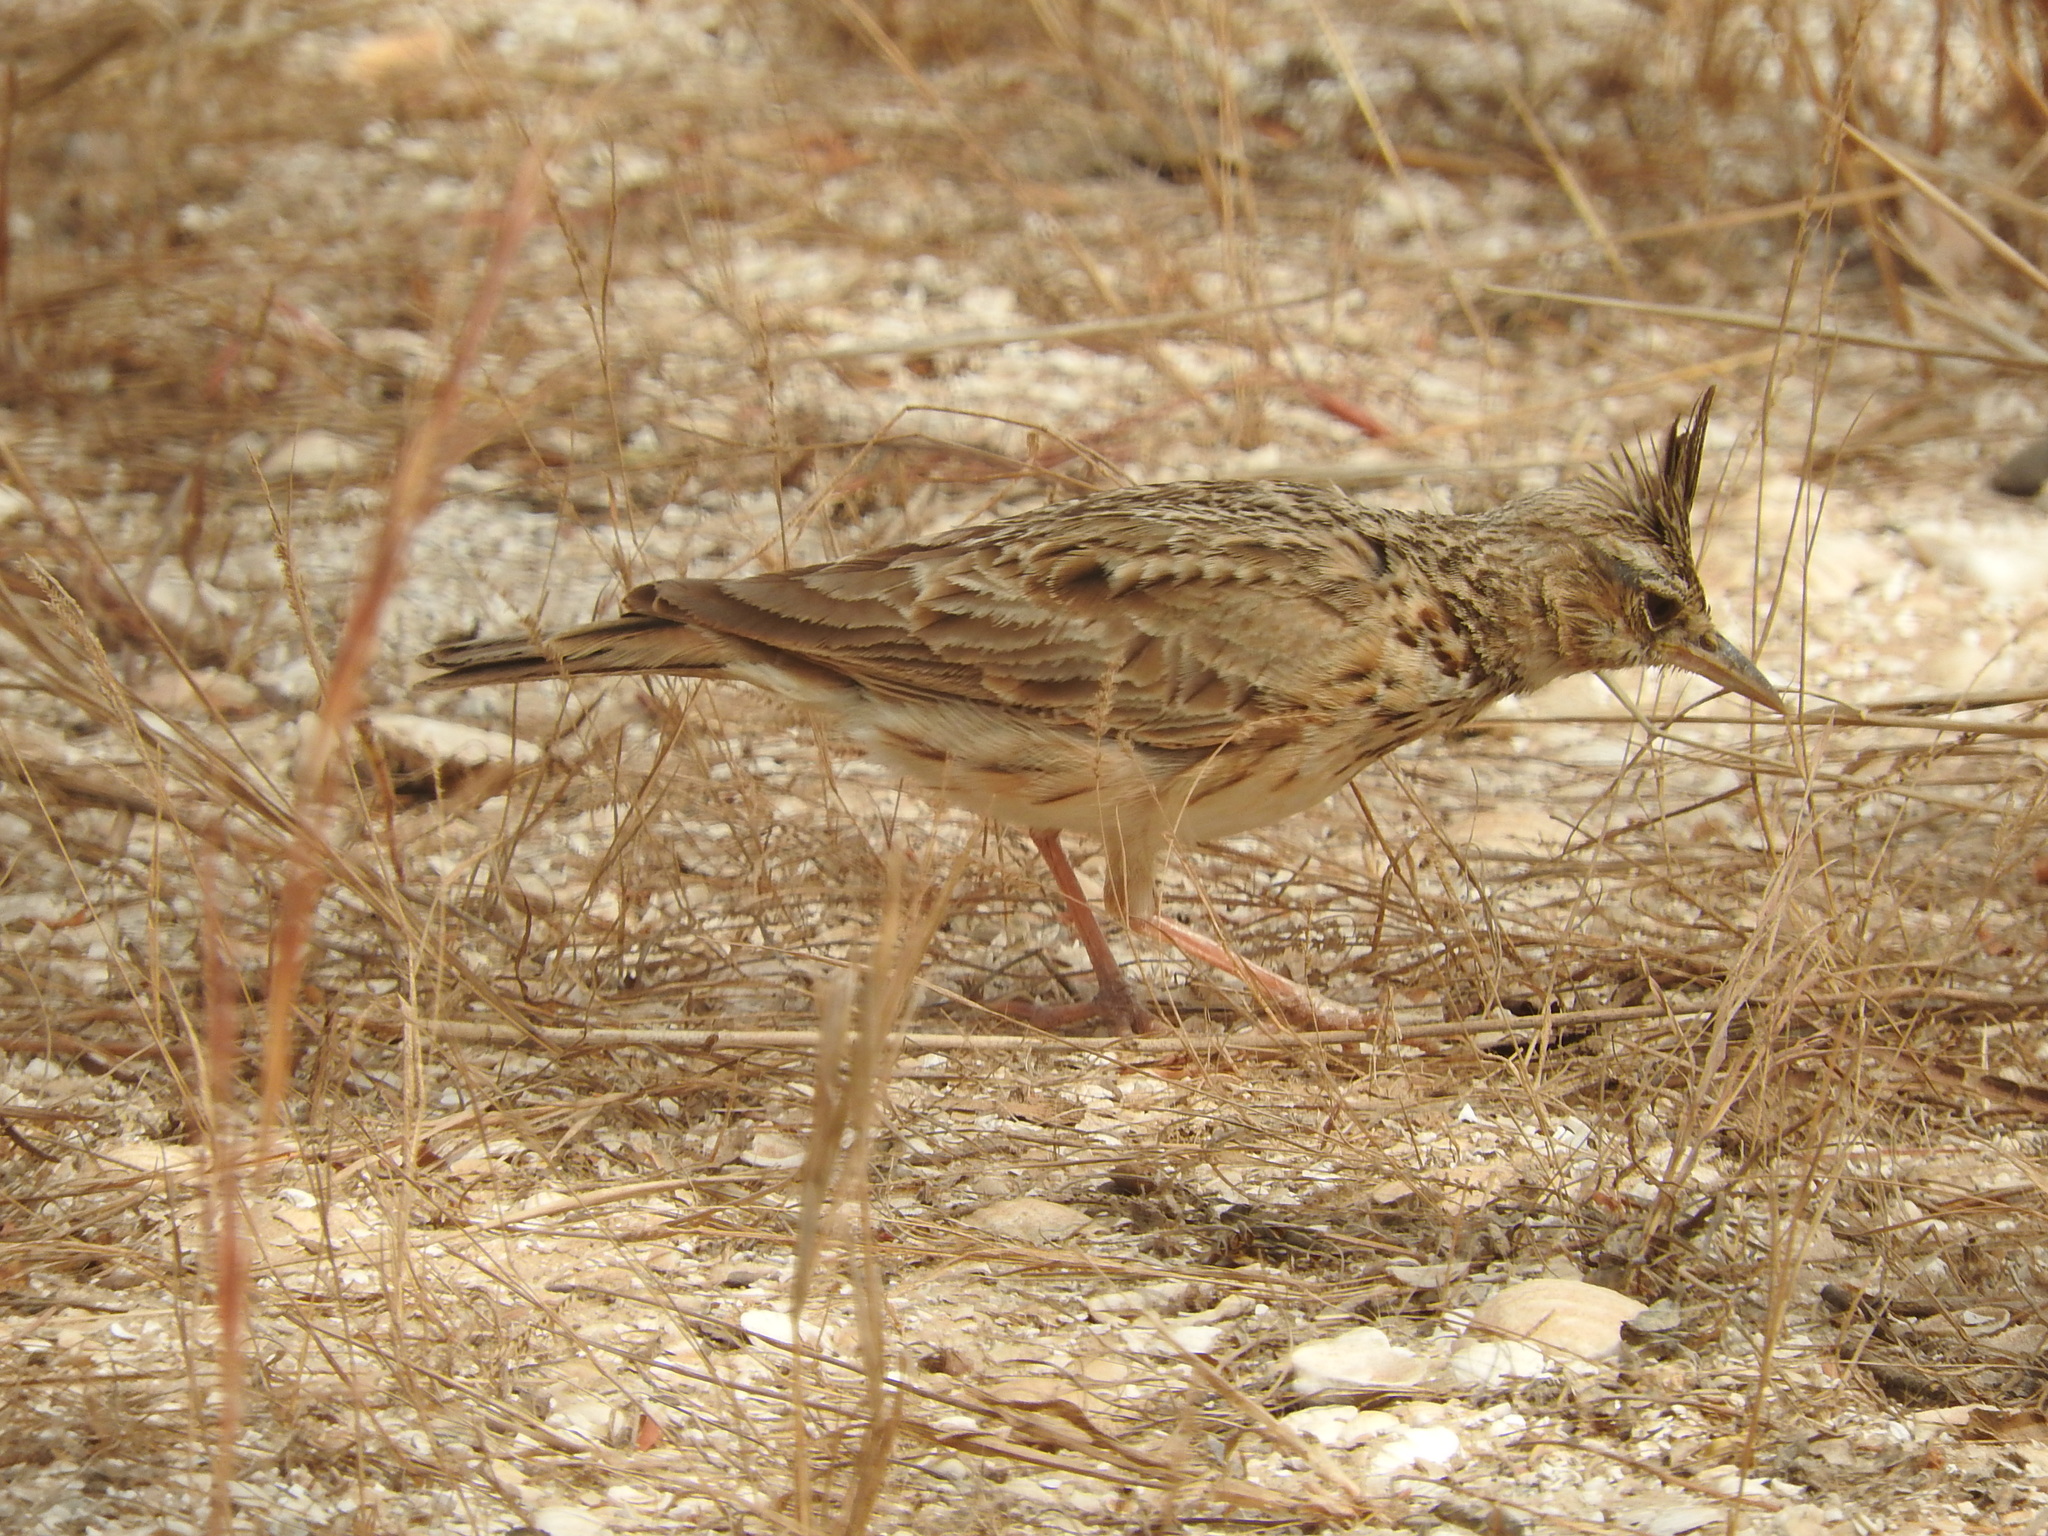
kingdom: Animalia
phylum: Chordata
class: Aves
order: Passeriformes
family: Alaudidae
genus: Galerida
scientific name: Galerida cristata
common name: Crested lark
